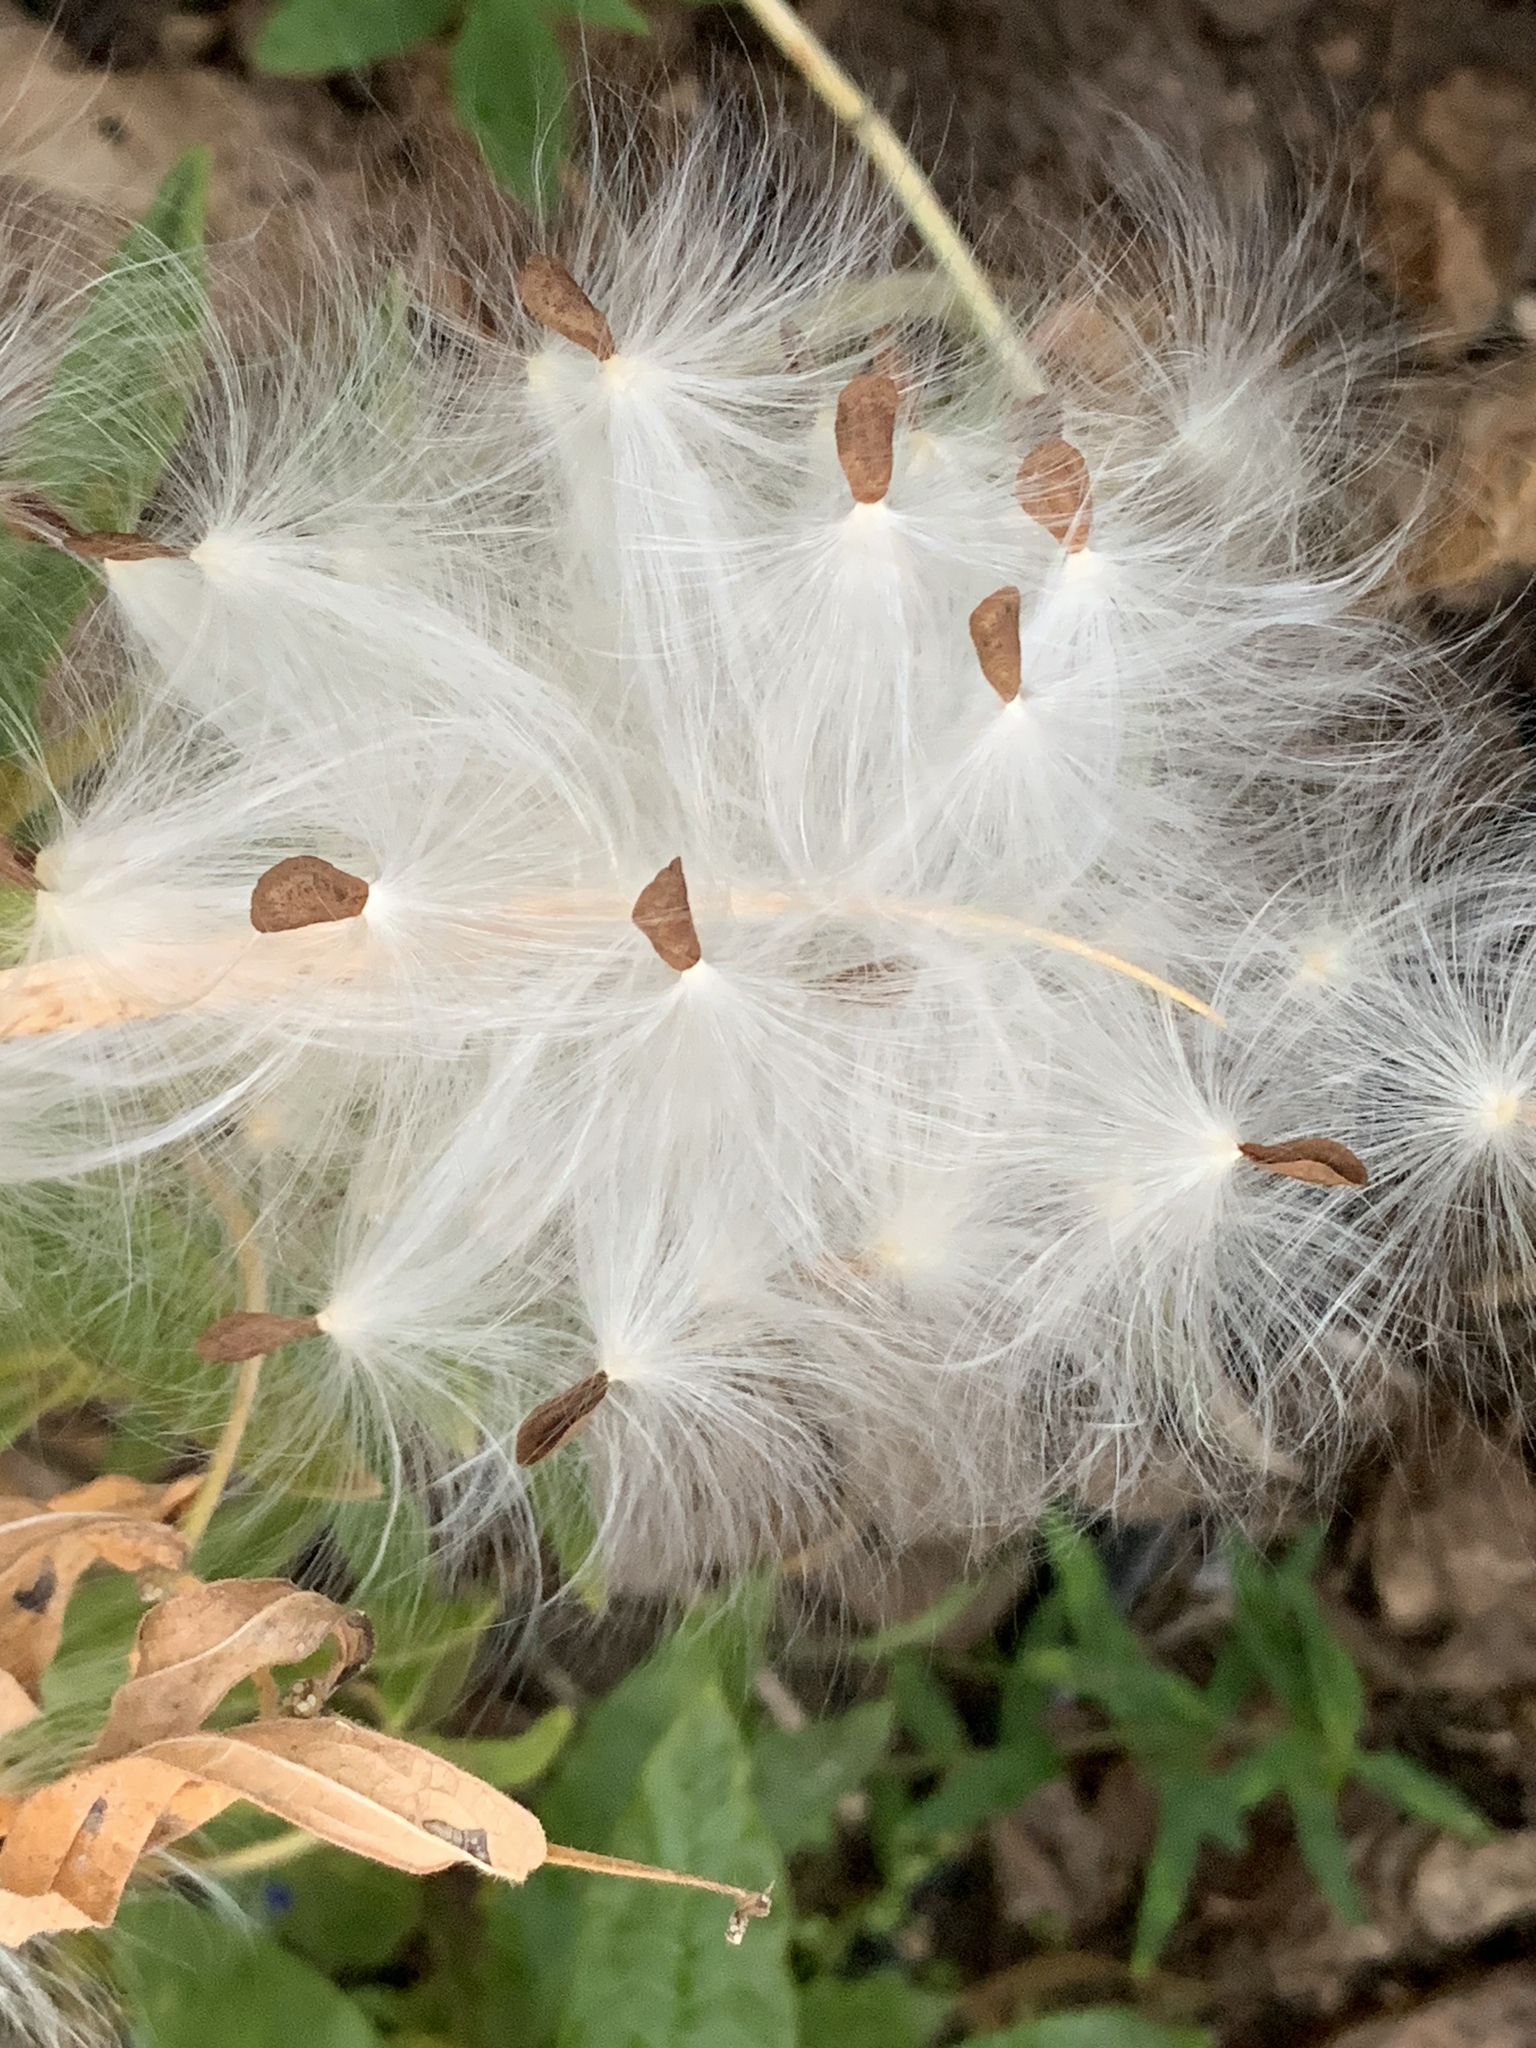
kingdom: Plantae
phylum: Tracheophyta
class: Magnoliopsida
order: Gentianales
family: Apocynaceae
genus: Asclepias
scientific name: Asclepias tuberosa
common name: Butterfly milkweed
